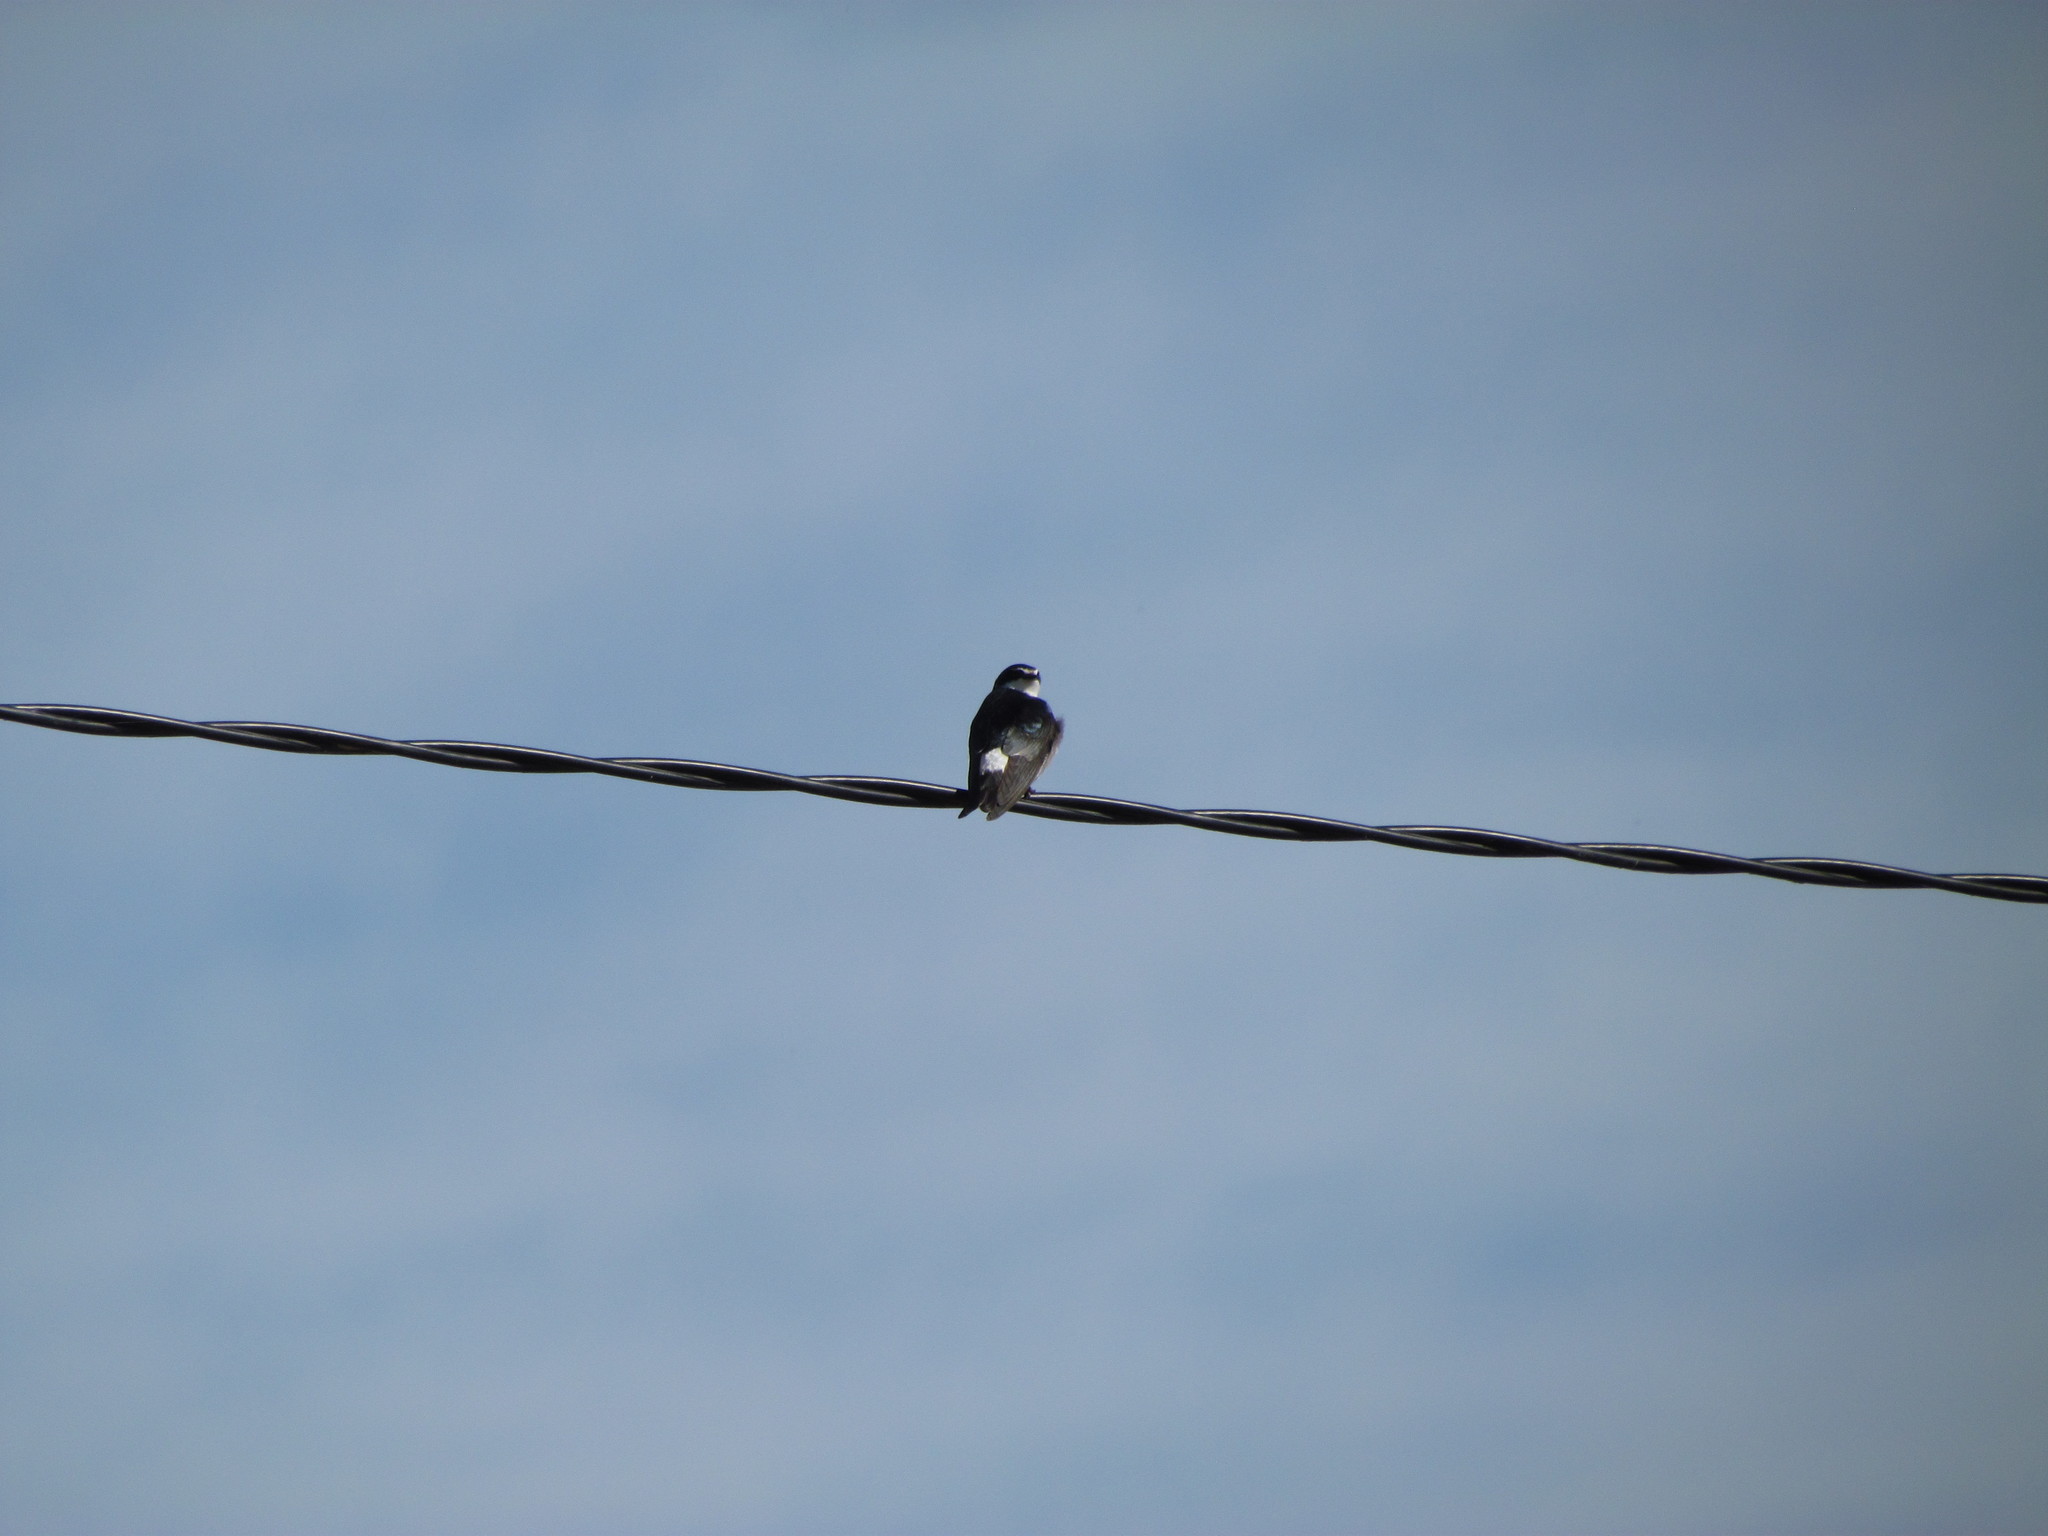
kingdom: Animalia
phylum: Chordata
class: Aves
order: Passeriformes
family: Hirundinidae
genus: Tachycineta
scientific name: Tachycineta leucorrhoa
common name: White-rumped swallow
